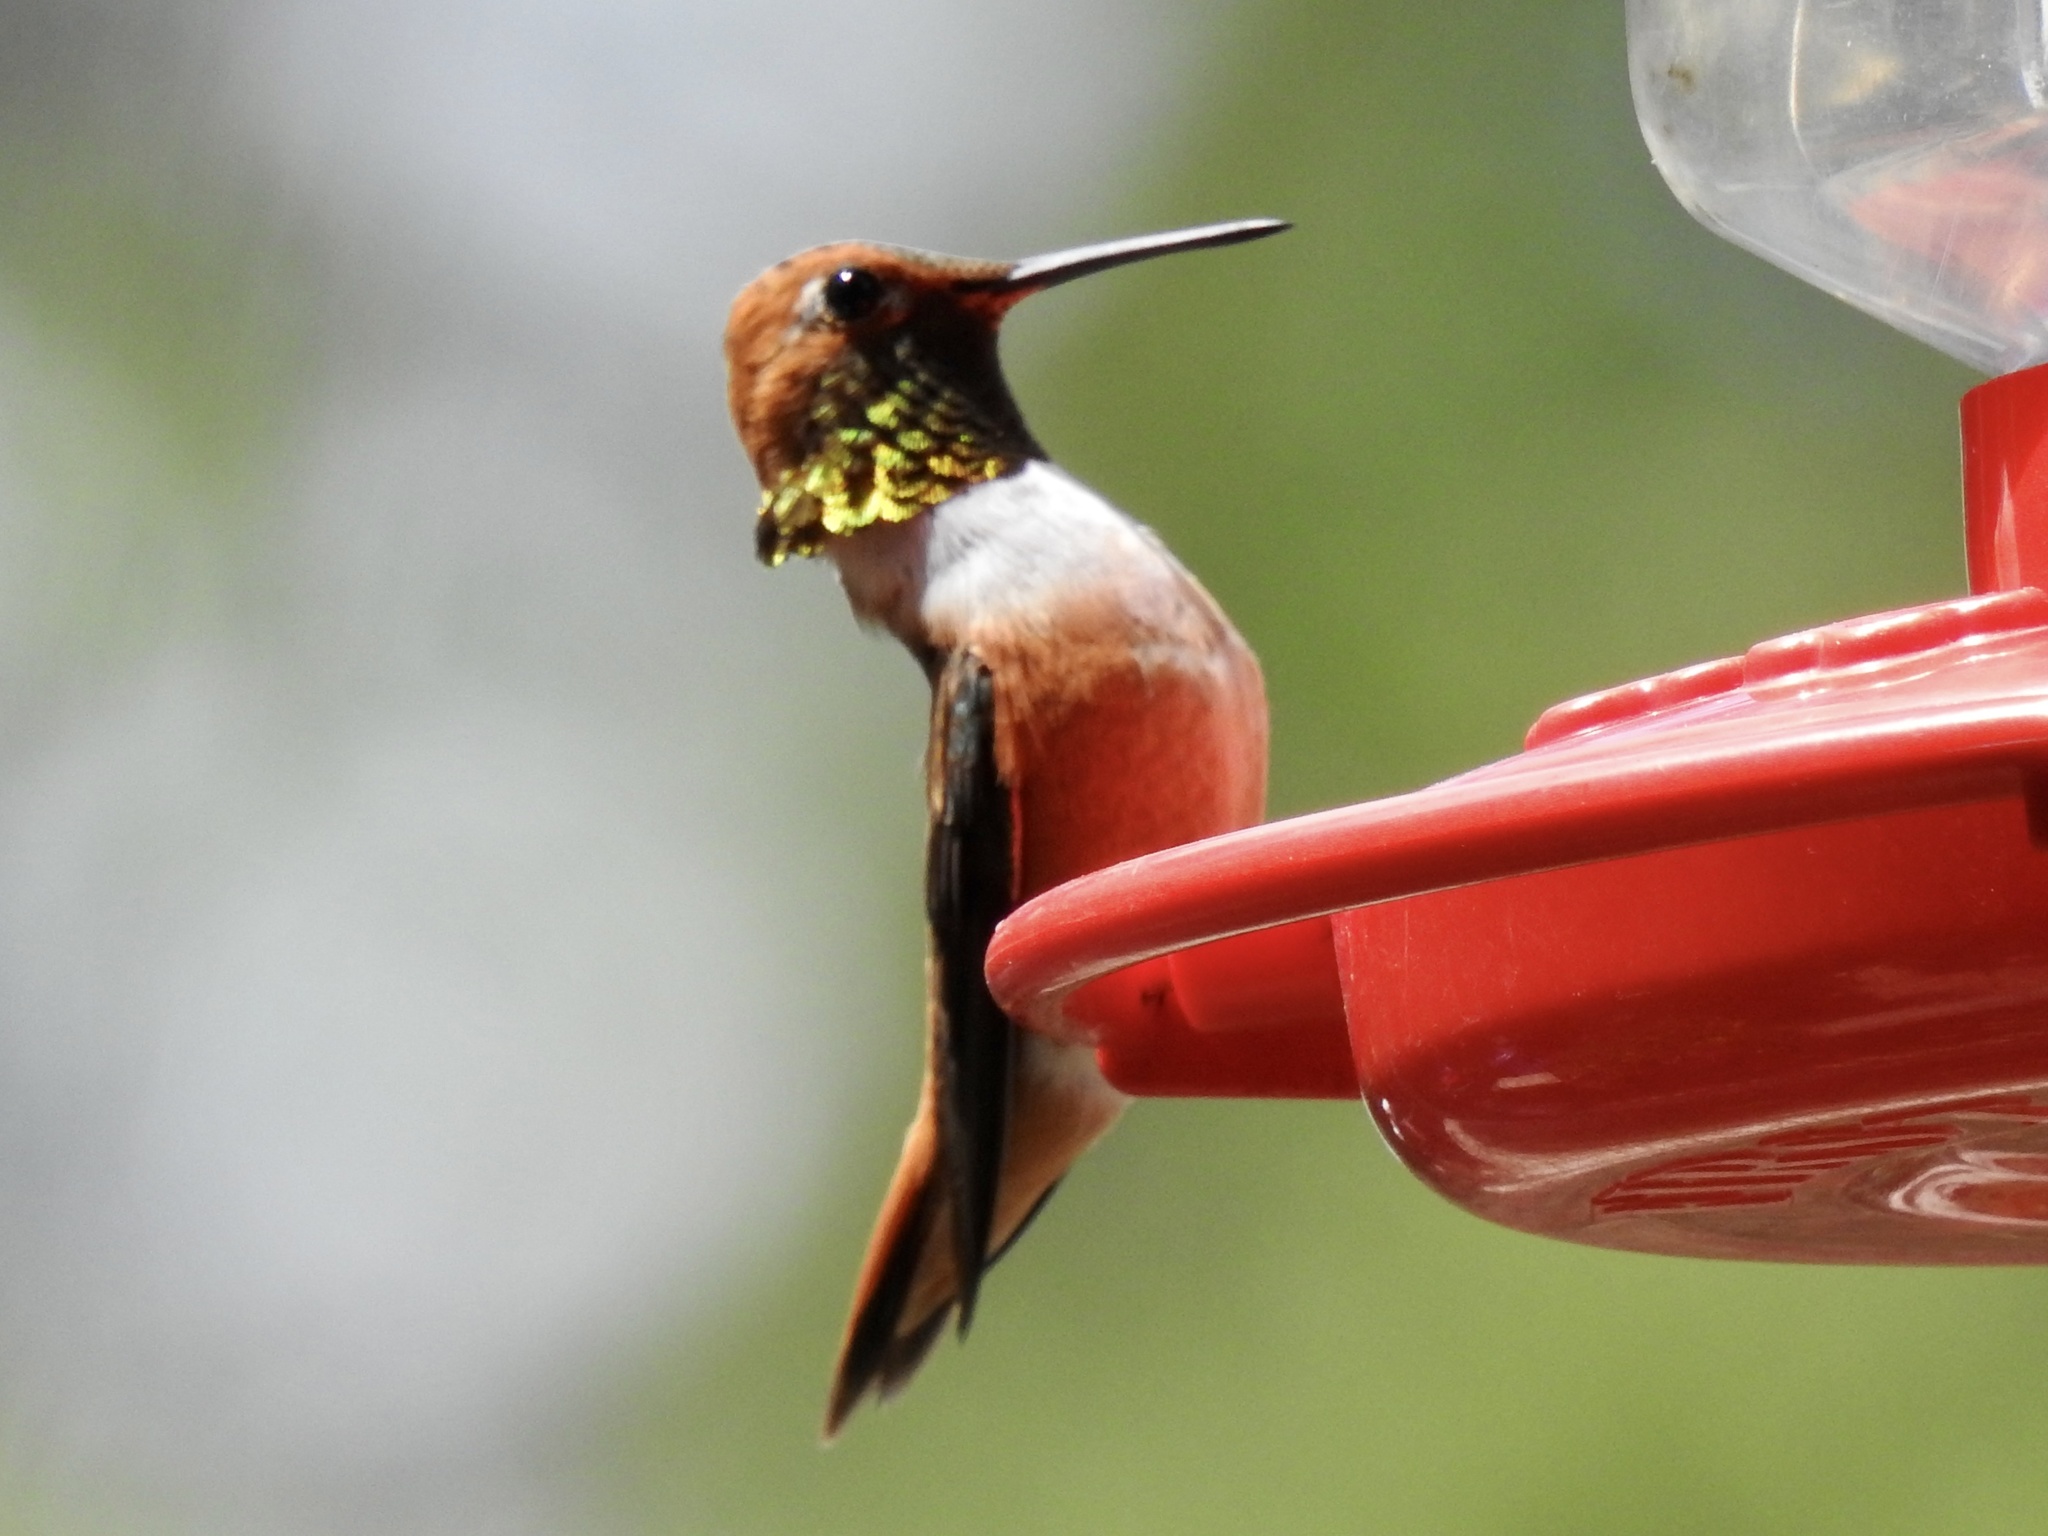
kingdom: Animalia
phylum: Chordata
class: Aves
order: Apodiformes
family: Trochilidae
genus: Selasphorus
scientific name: Selasphorus rufus
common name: Rufous hummingbird
